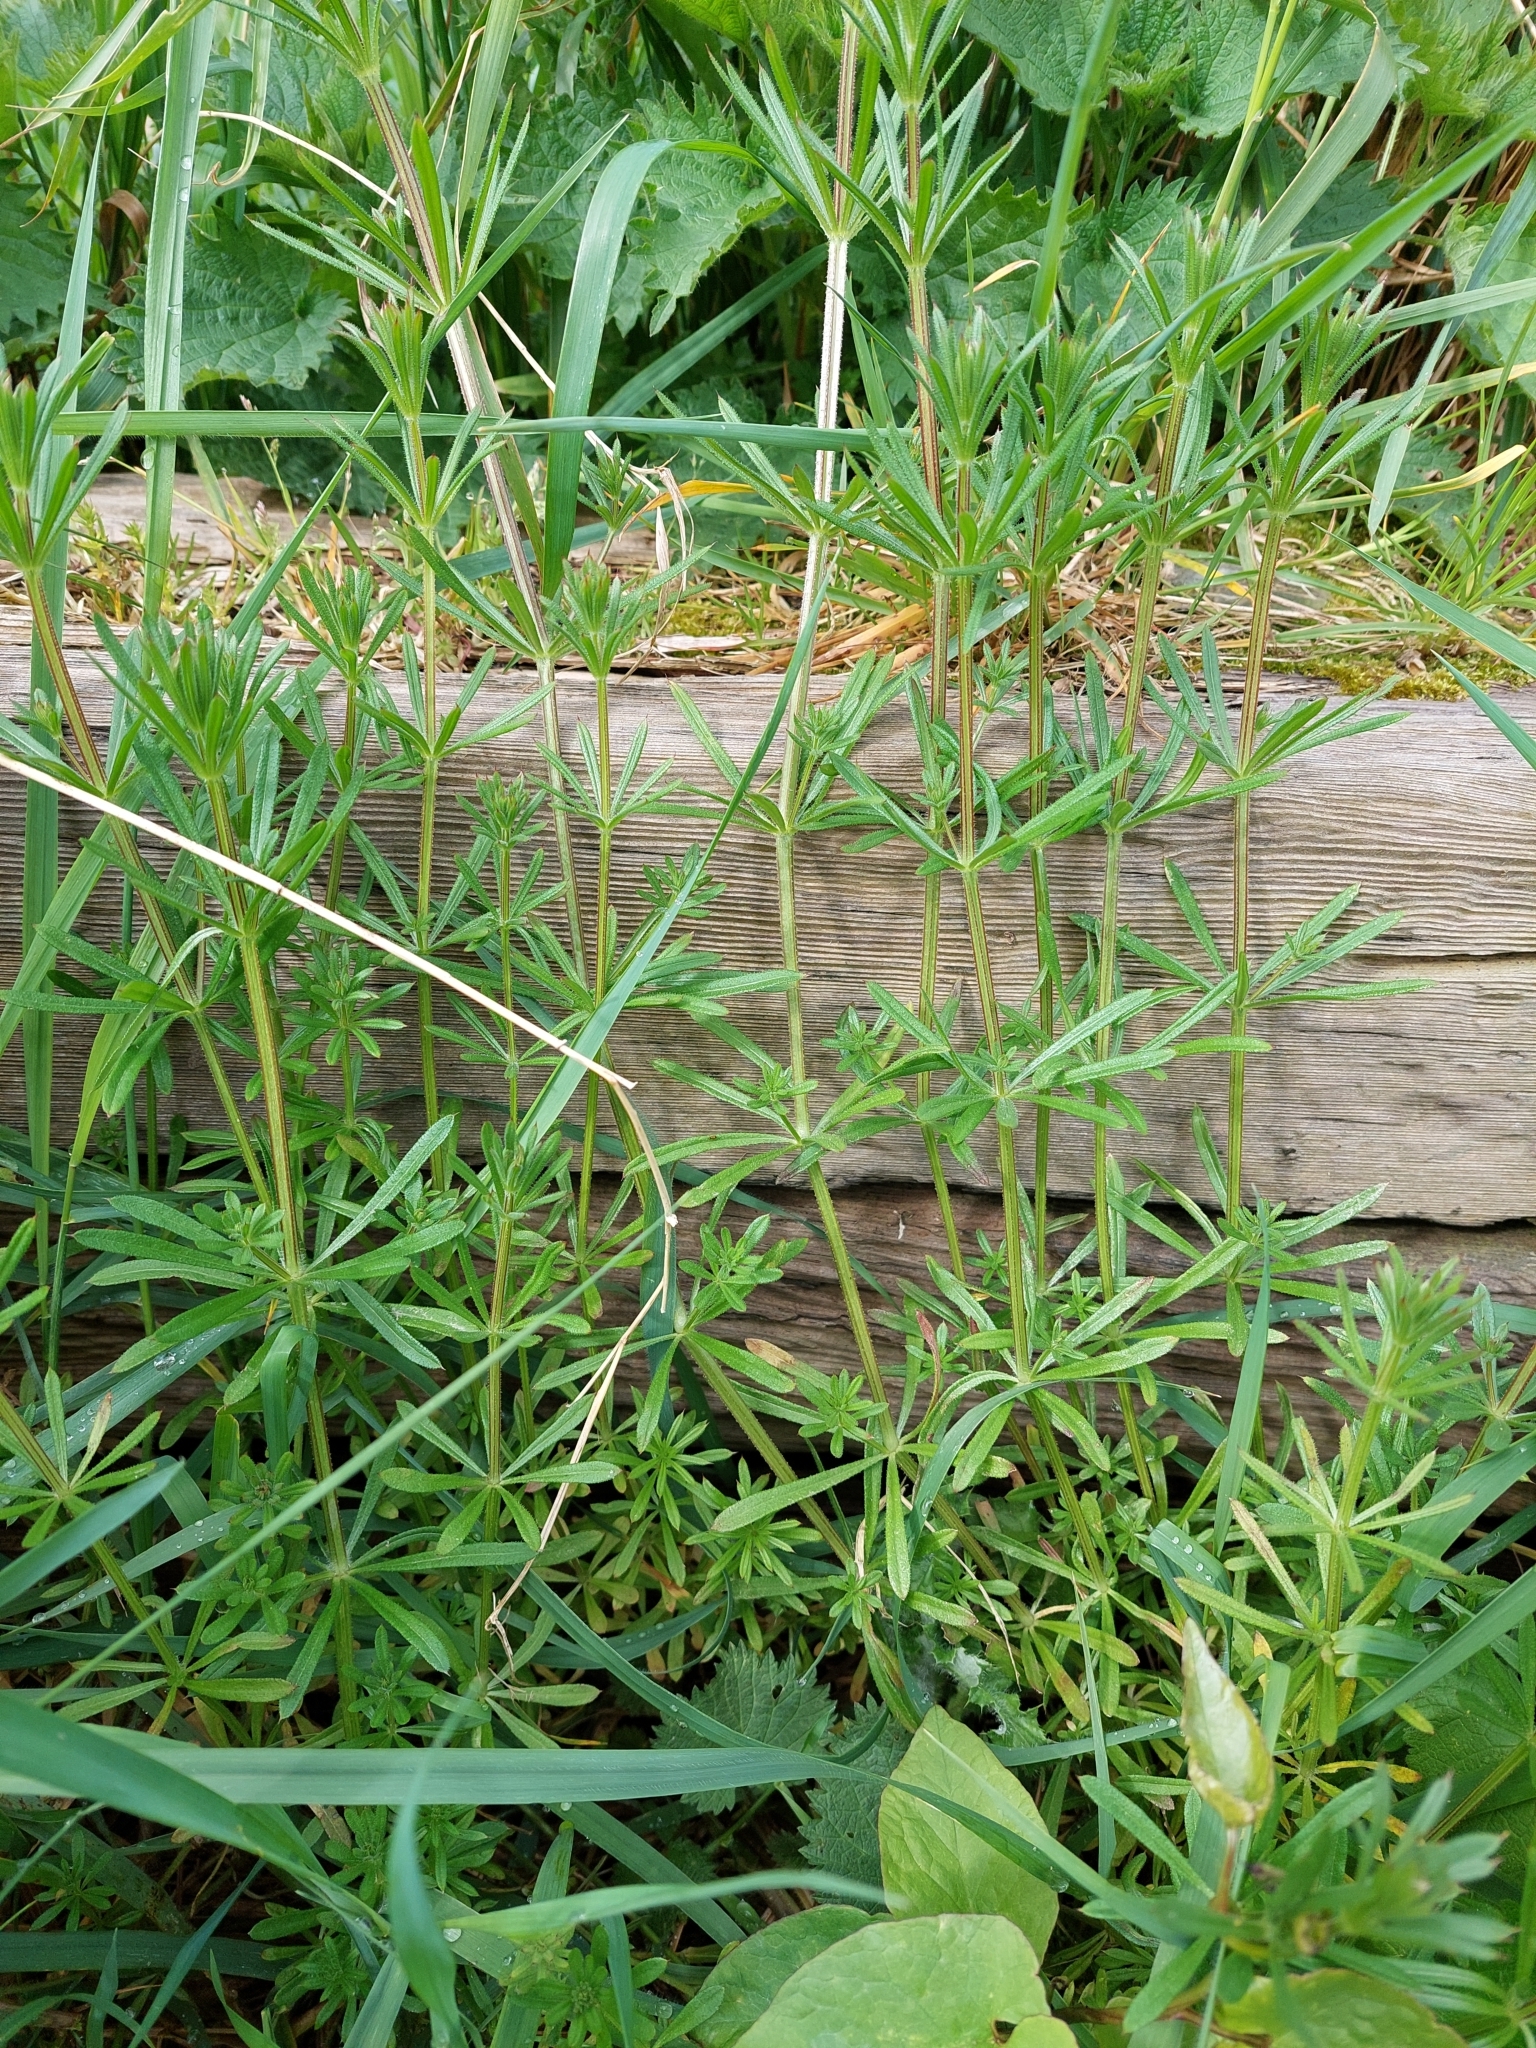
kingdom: Plantae
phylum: Tracheophyta
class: Magnoliopsida
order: Gentianales
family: Rubiaceae
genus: Galium
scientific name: Galium aparine
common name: Cleavers
